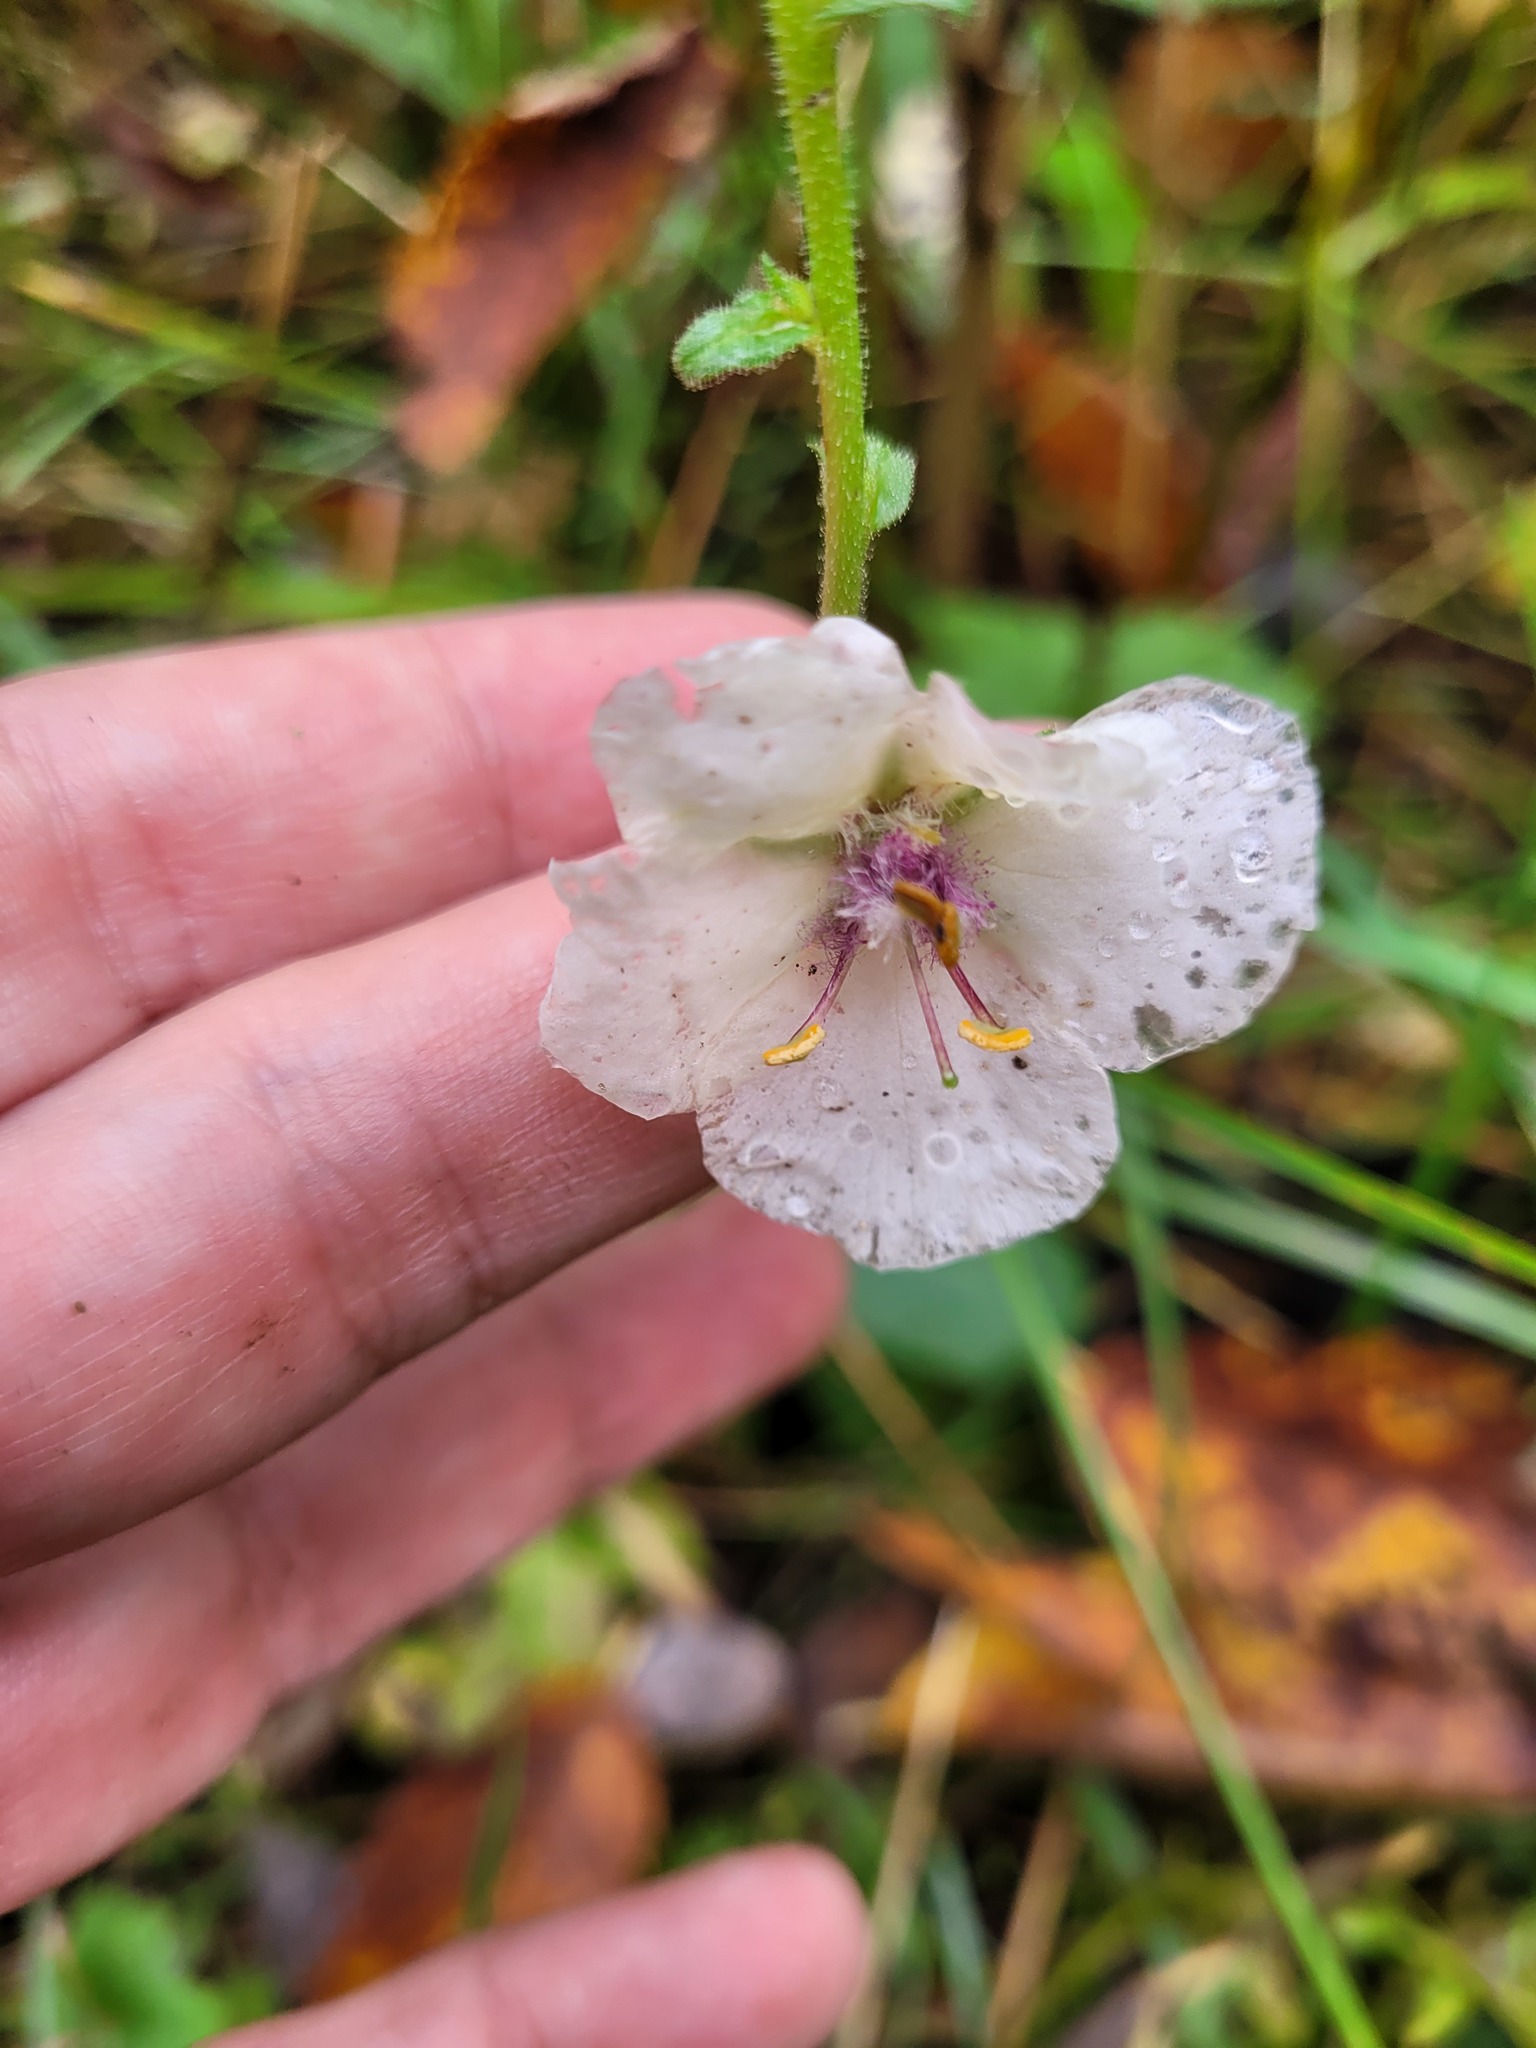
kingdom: Plantae
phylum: Tracheophyta
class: Magnoliopsida
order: Lamiales
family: Scrophulariaceae
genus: Verbascum
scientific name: Verbascum blattaria
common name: Moth mullein
